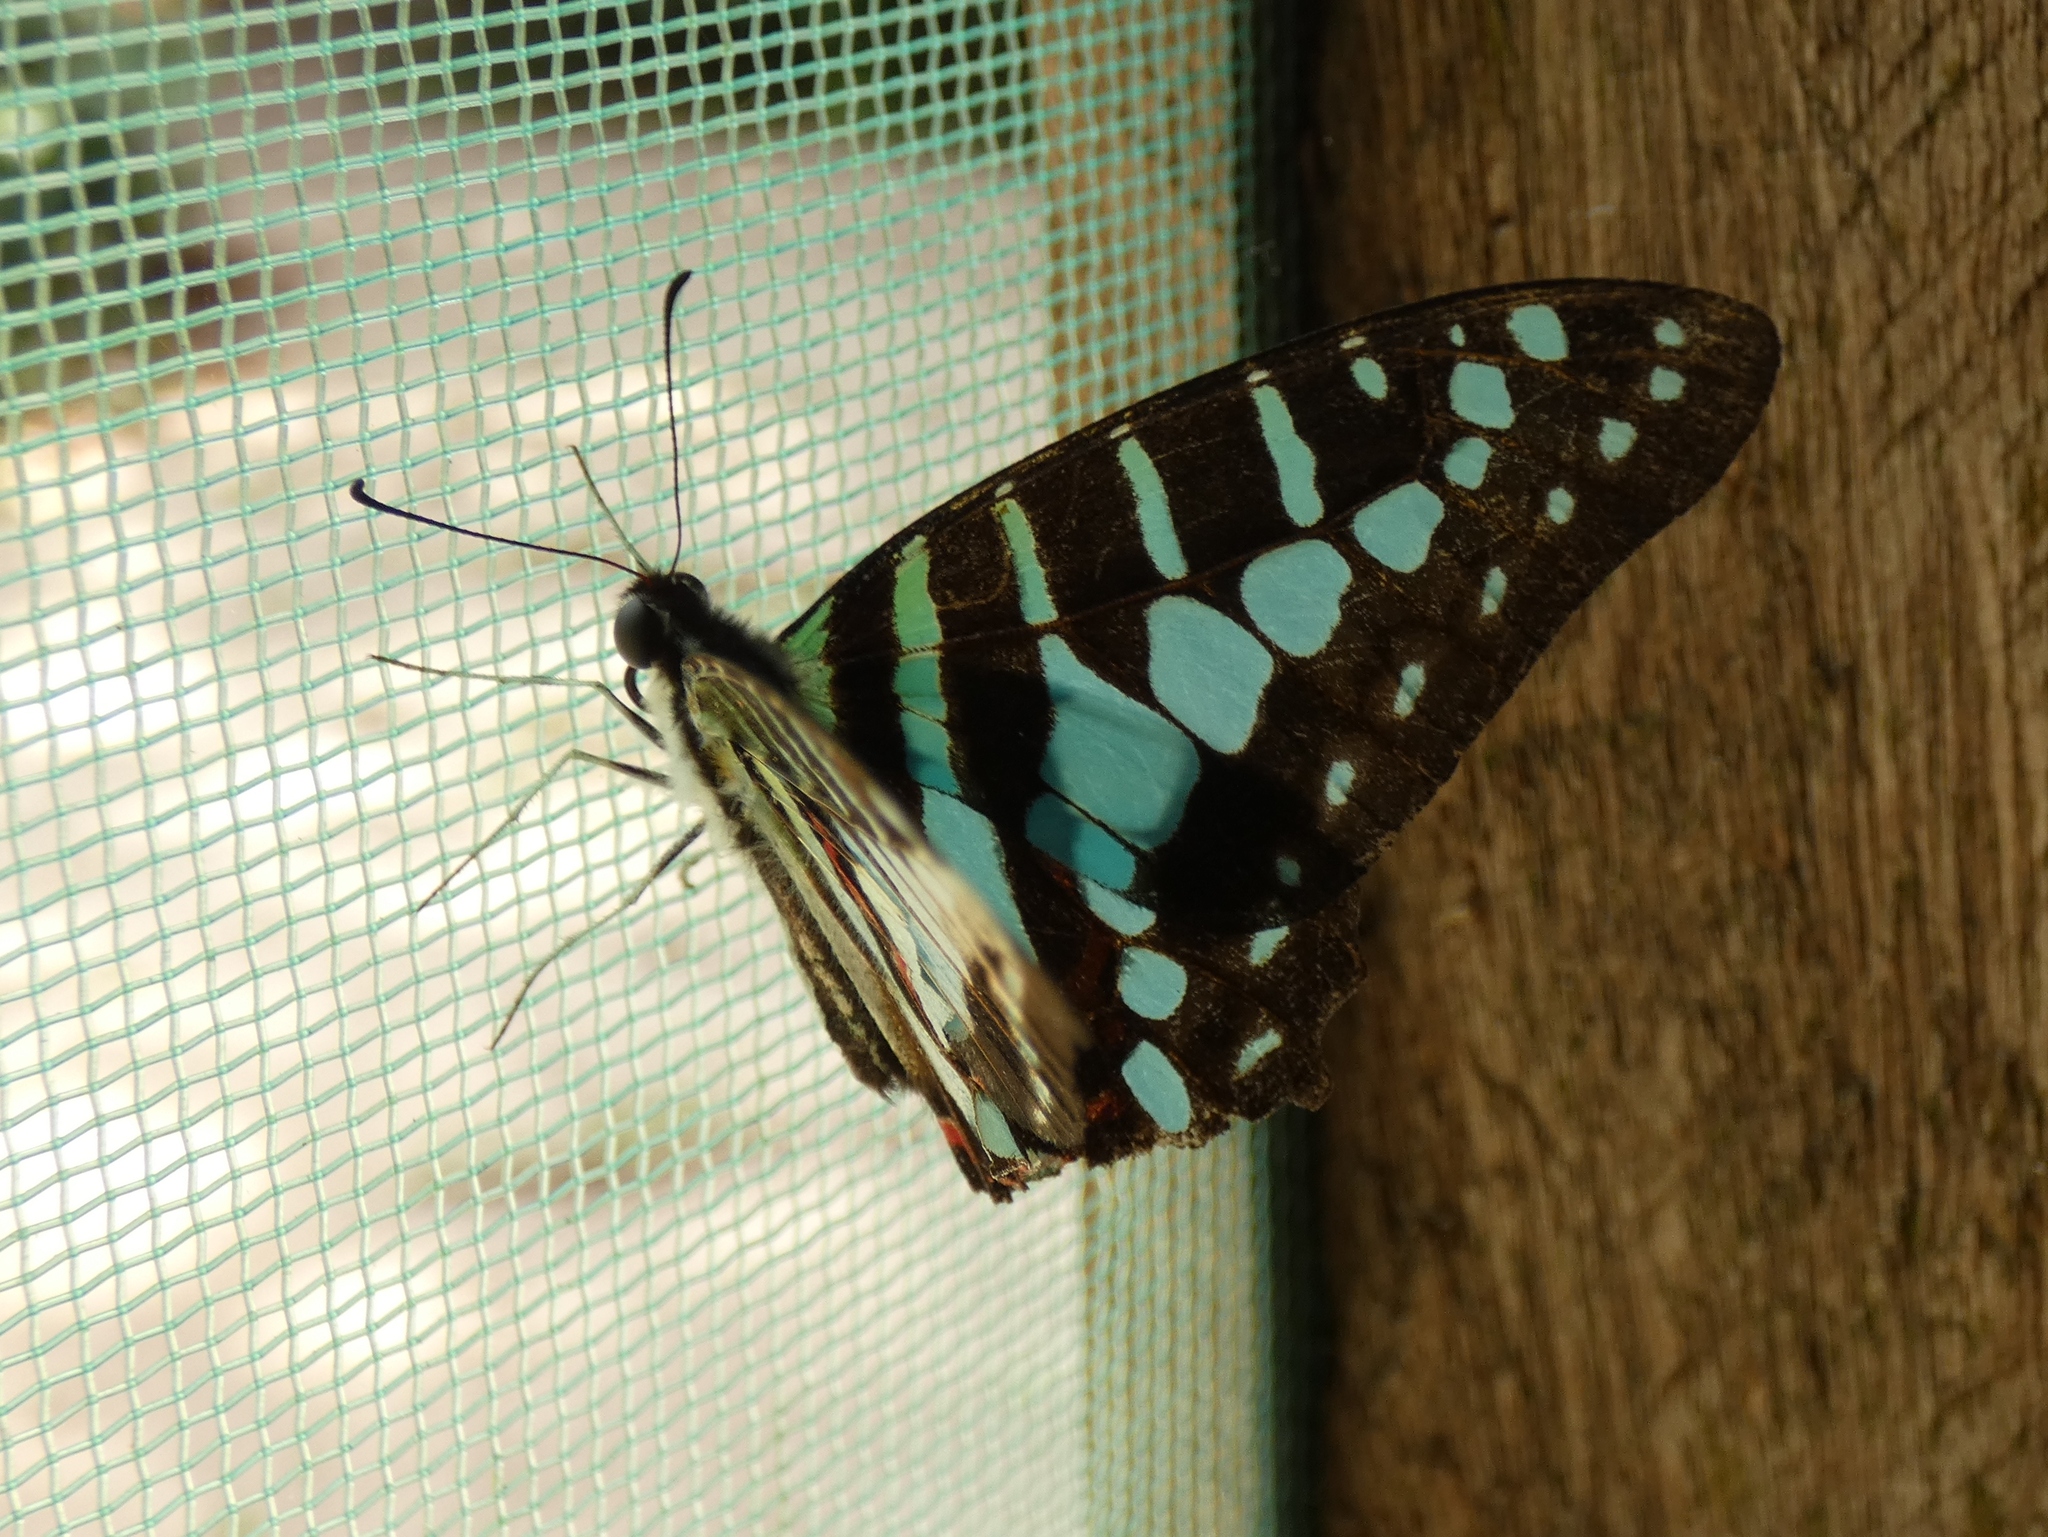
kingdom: Animalia
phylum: Arthropoda
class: Insecta
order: Lepidoptera
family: Papilionidae
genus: Graphium
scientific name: Graphium policenes
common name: Common swordtail
